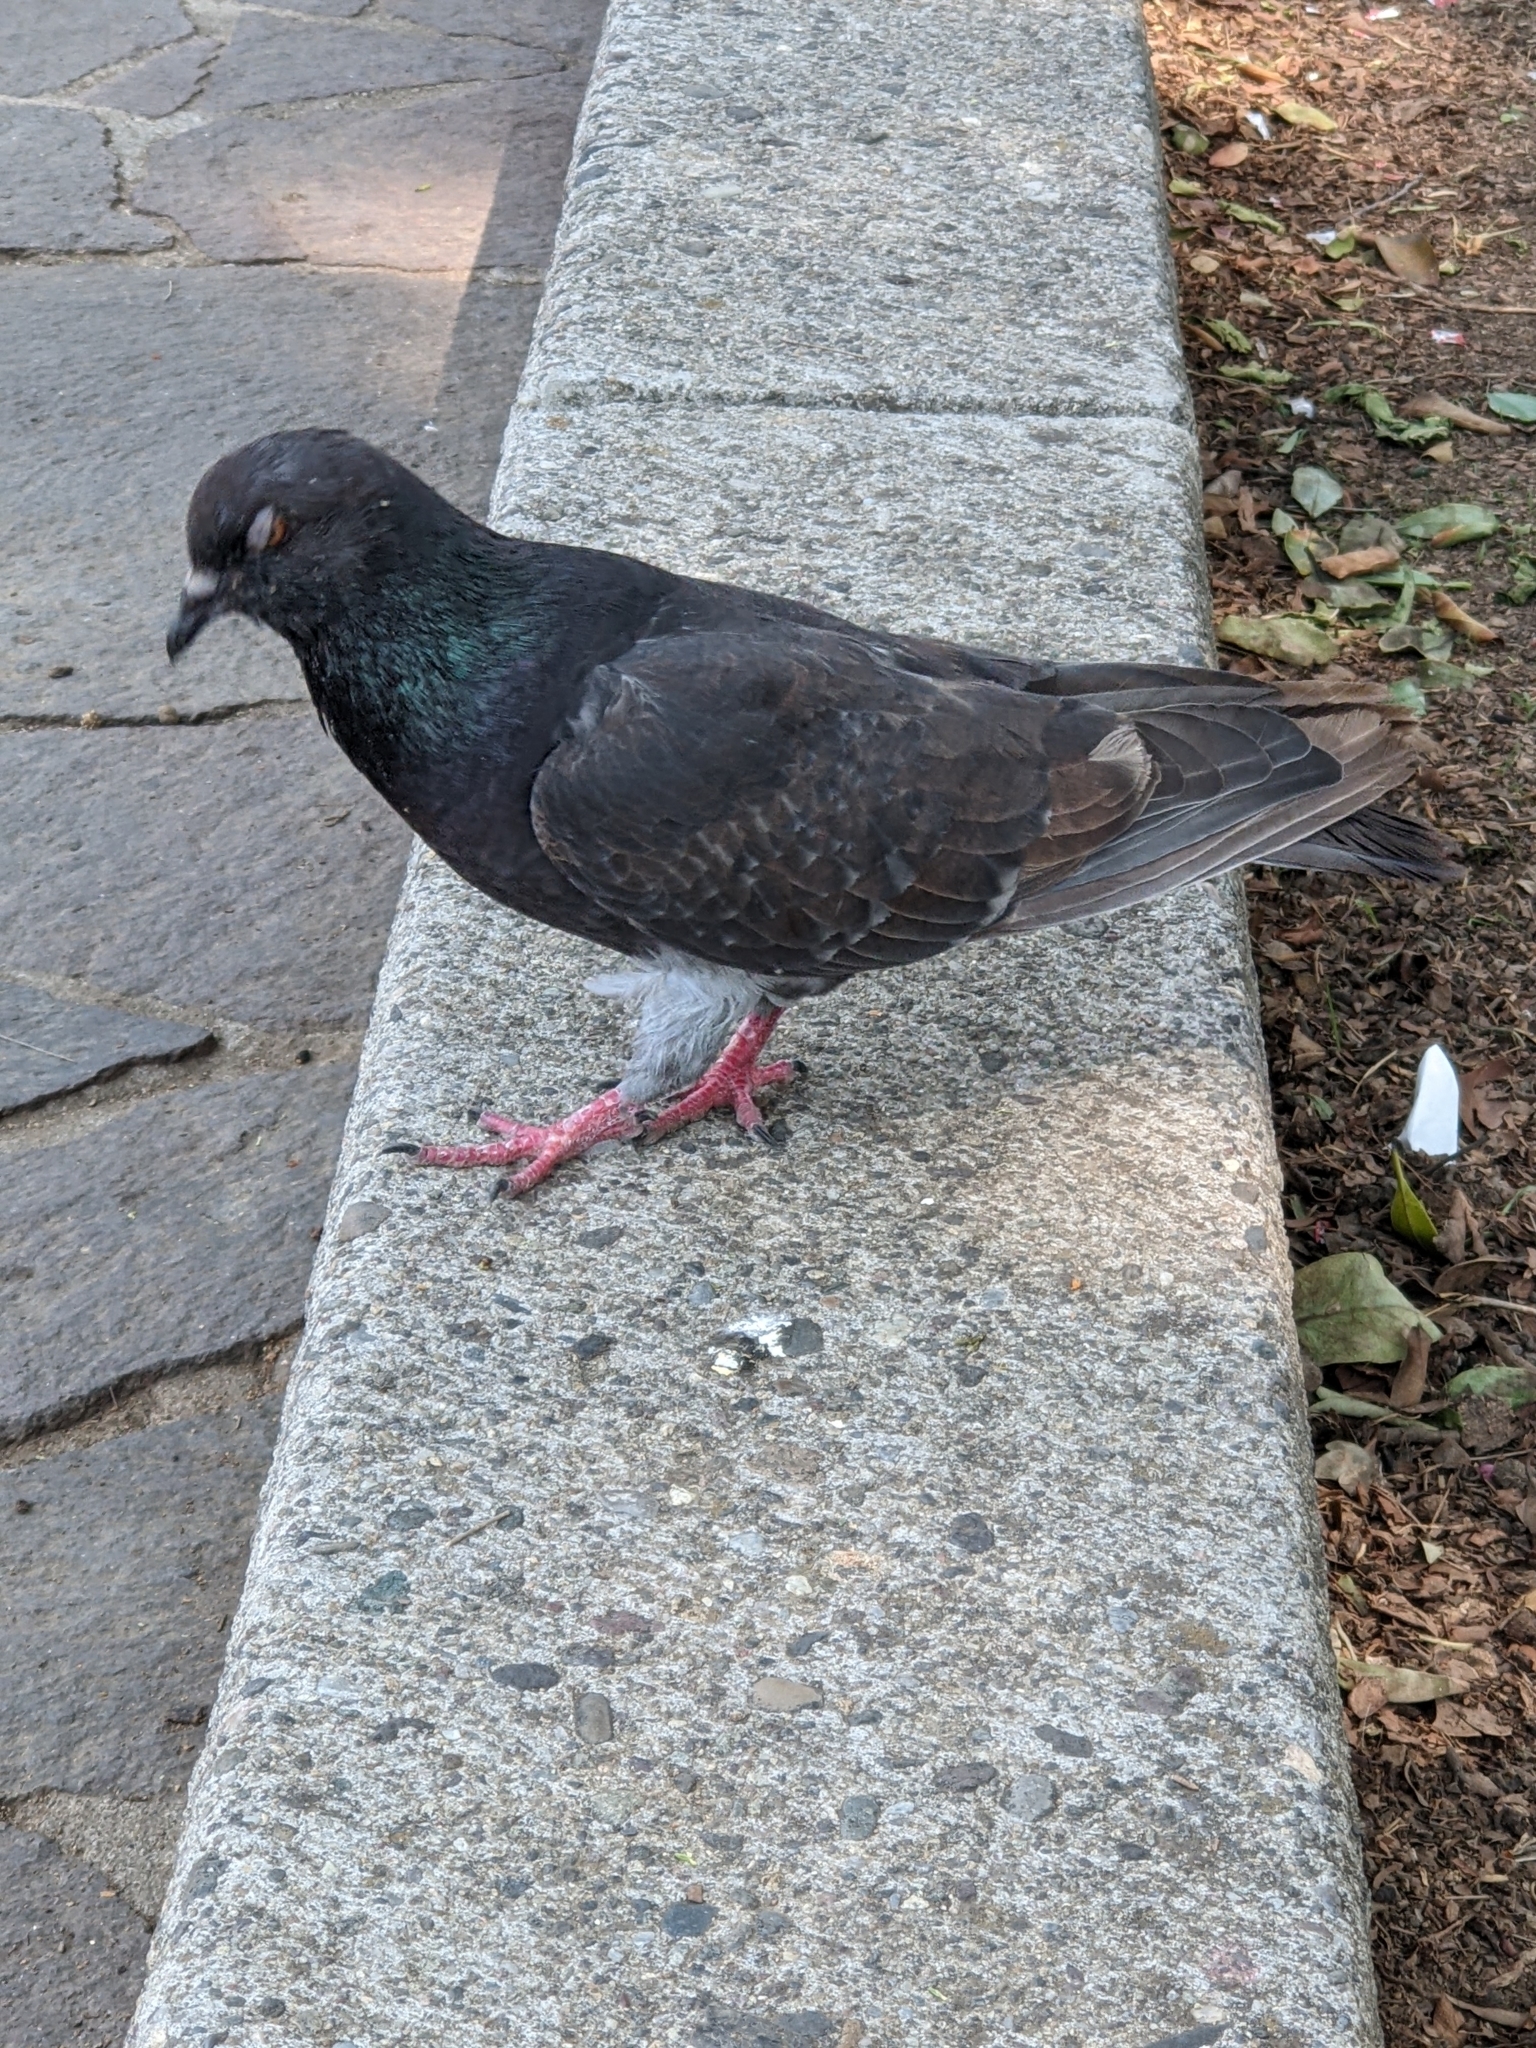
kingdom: Animalia
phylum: Chordata
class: Aves
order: Columbiformes
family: Columbidae
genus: Columba
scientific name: Columba livia
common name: Rock pigeon
